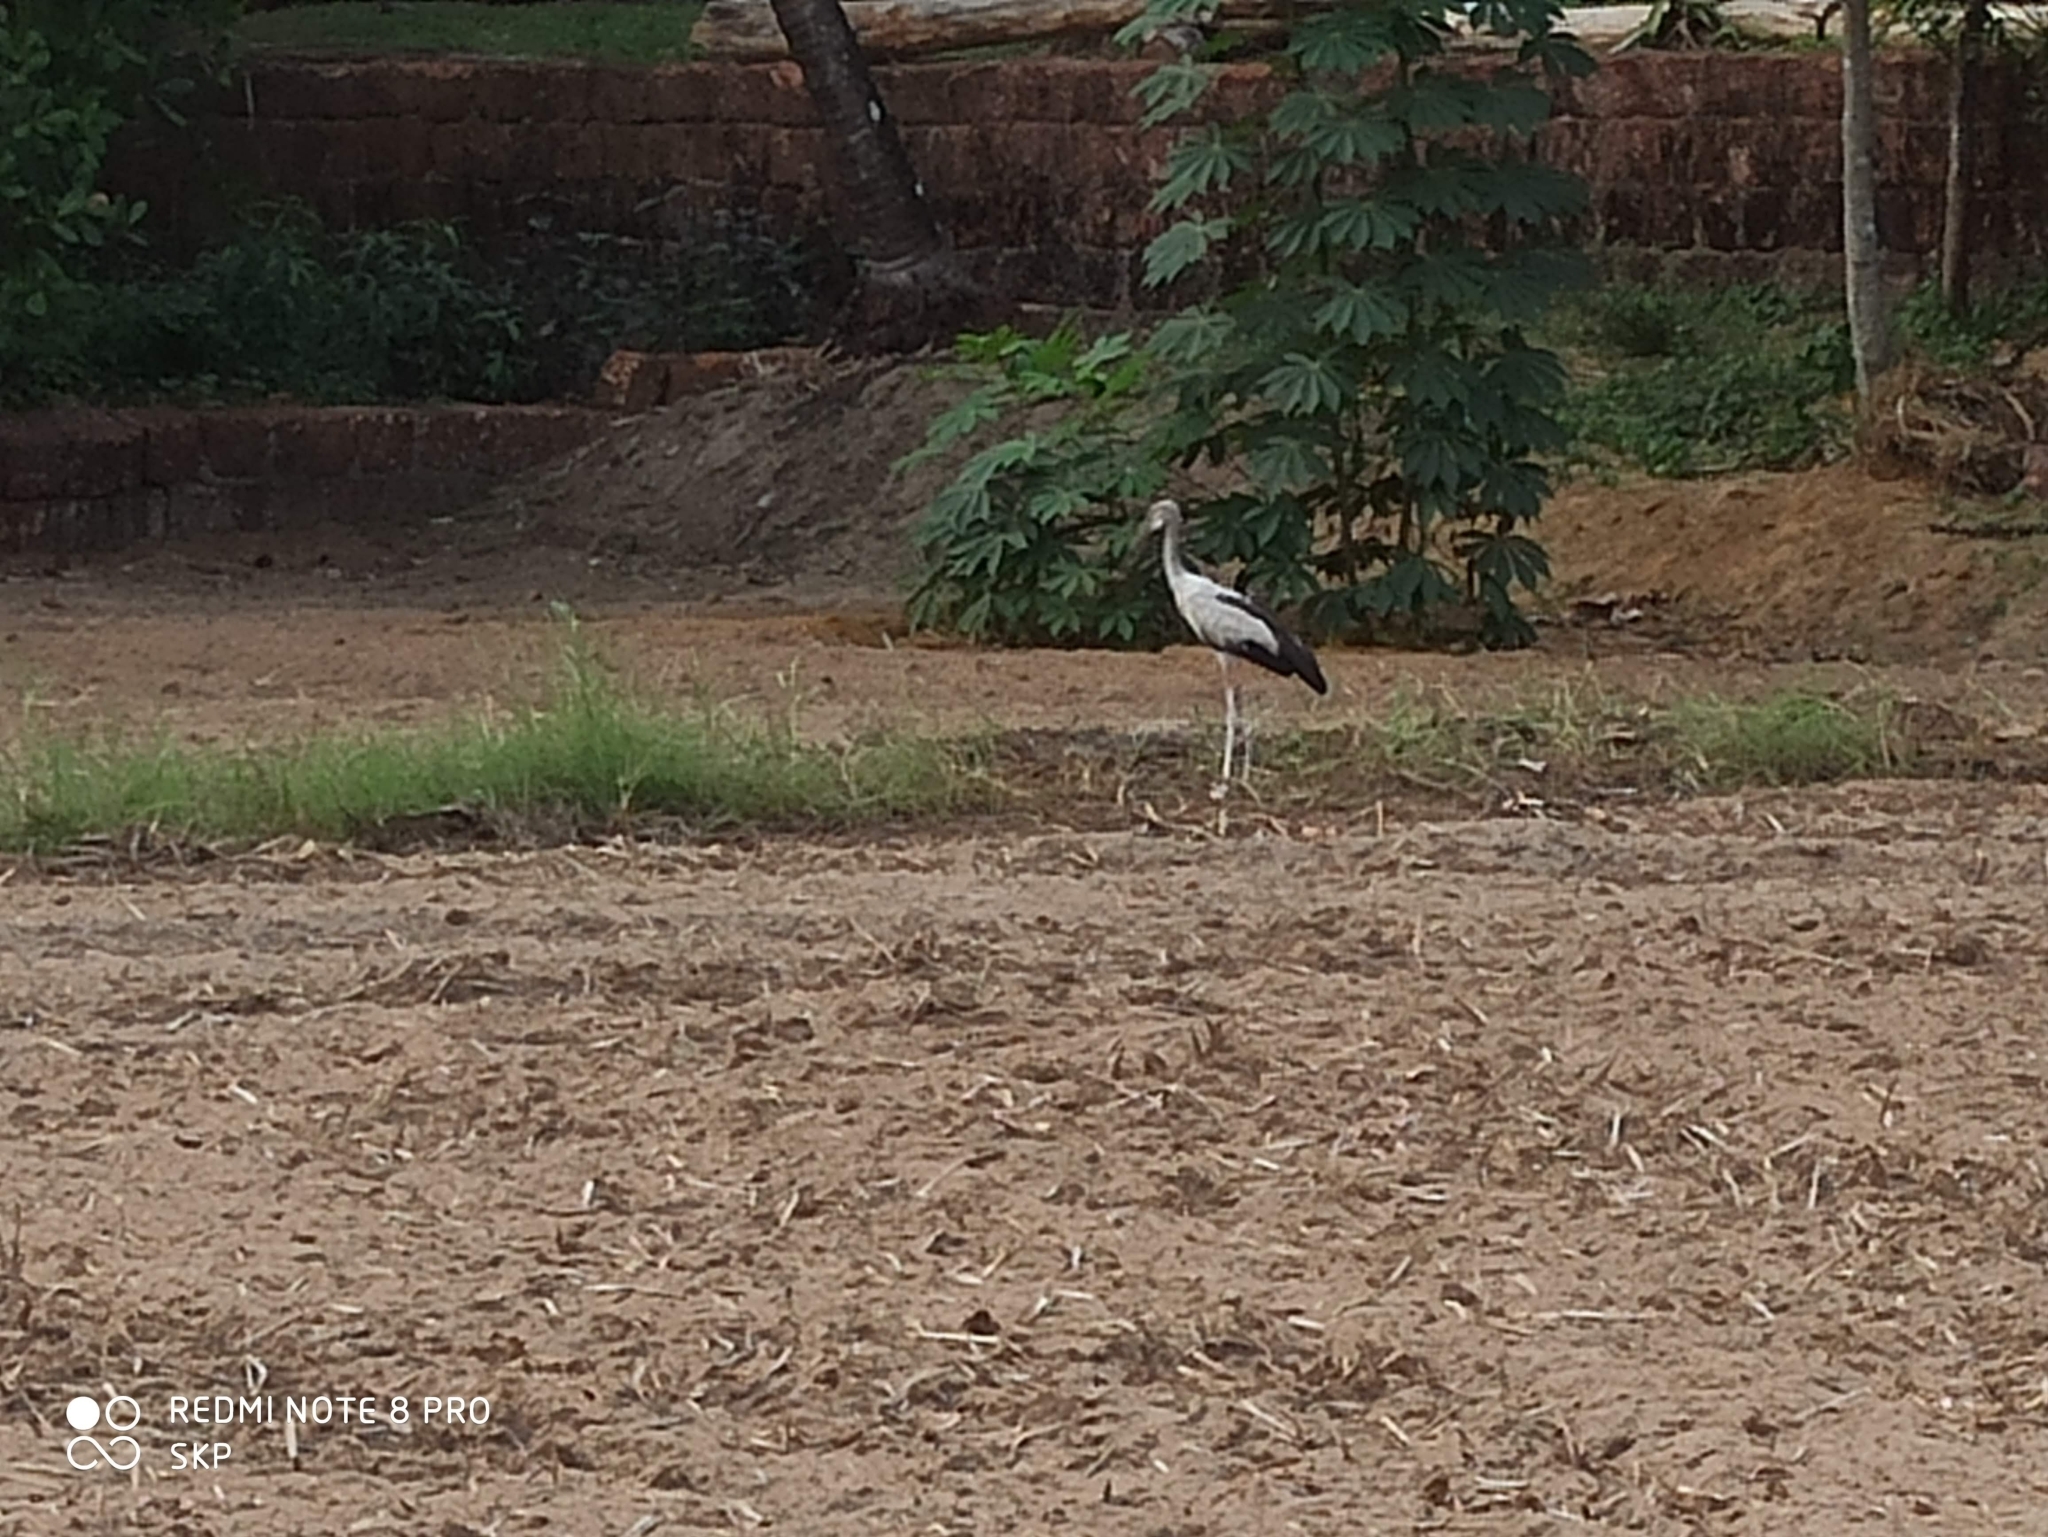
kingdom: Animalia
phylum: Chordata
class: Aves
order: Ciconiiformes
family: Ciconiidae
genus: Anastomus
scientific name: Anastomus oscitans
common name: Asian openbill
